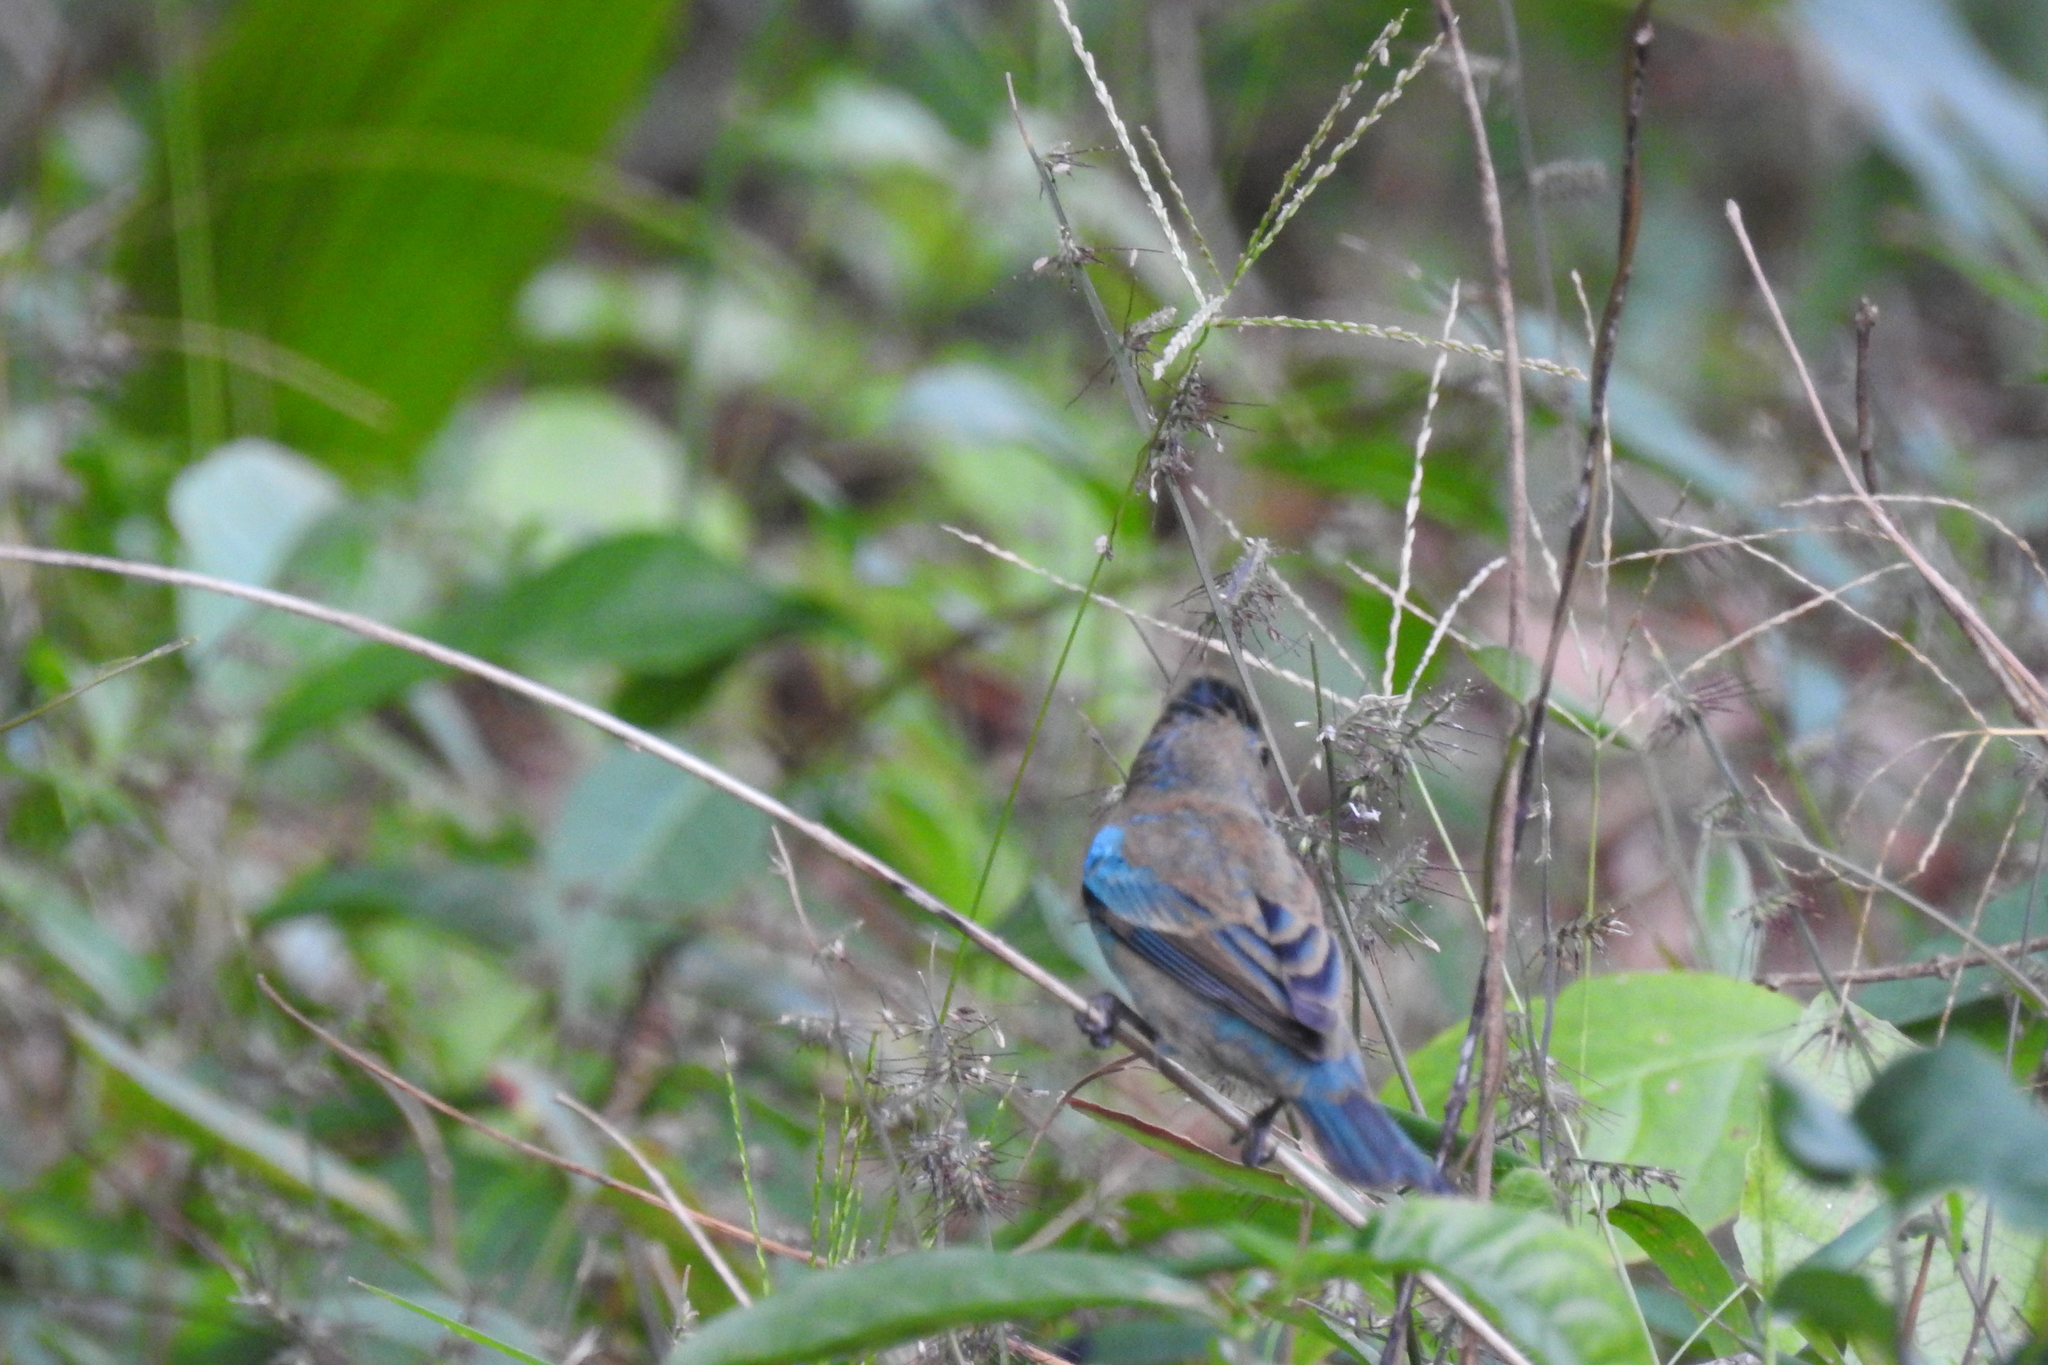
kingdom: Animalia
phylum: Chordata
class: Aves
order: Passeriformes
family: Cardinalidae
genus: Passerina
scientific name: Passerina caerulea
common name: Blue grosbeak
